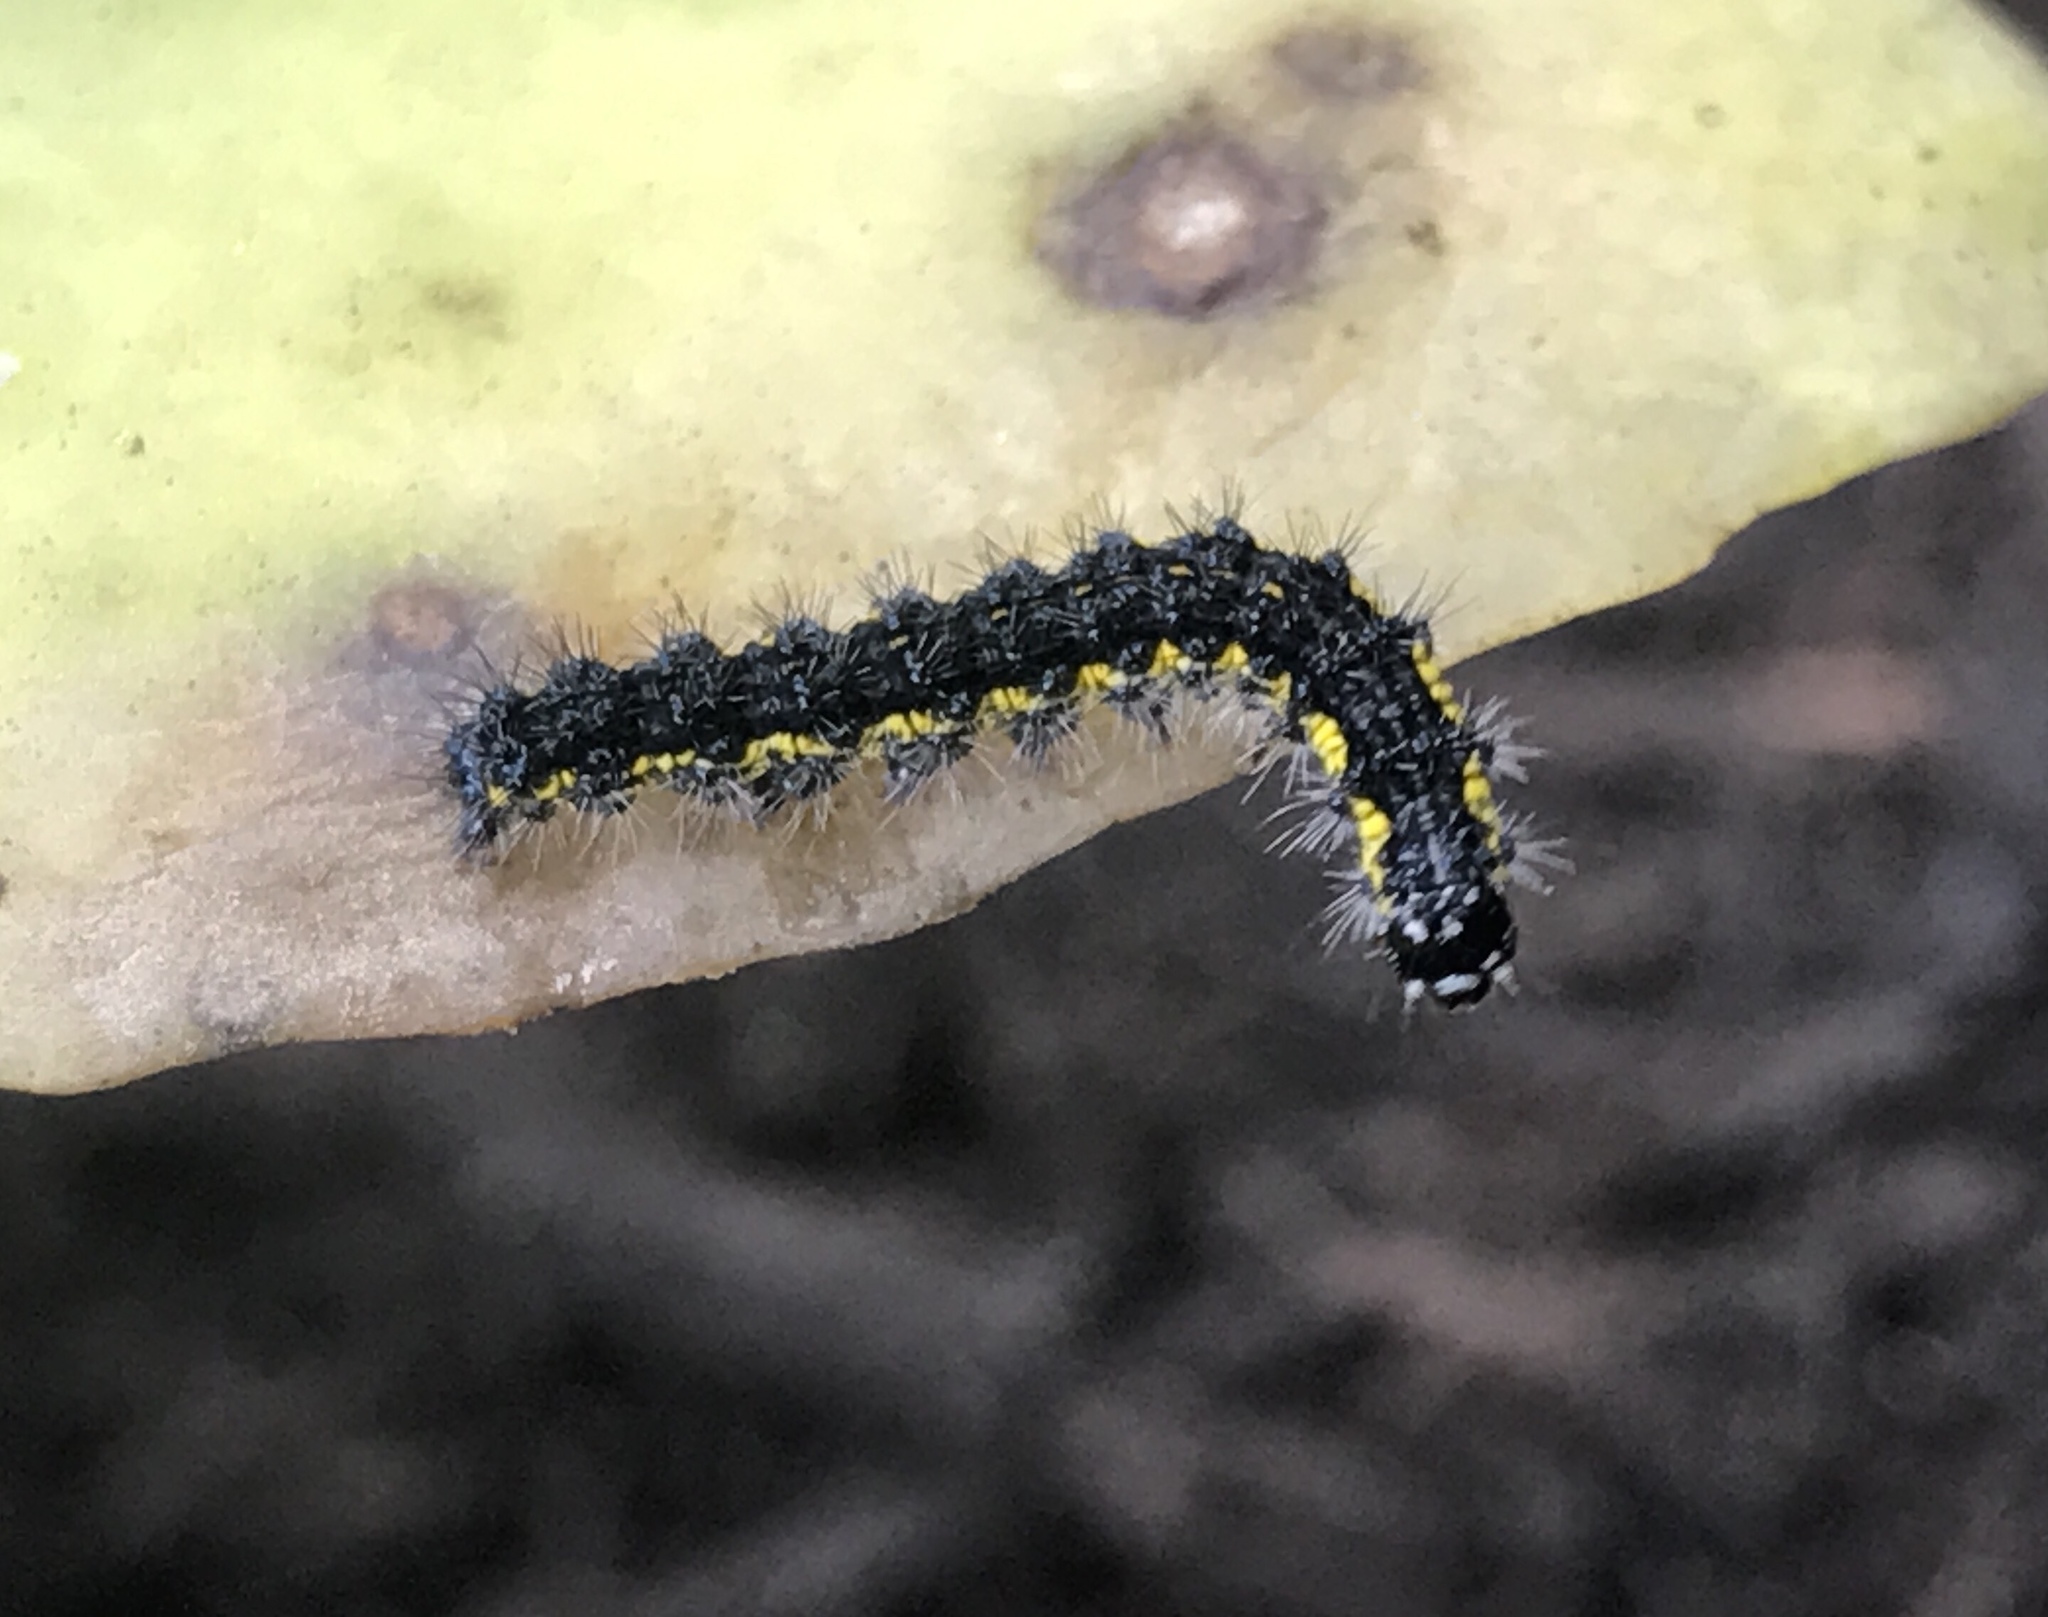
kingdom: Animalia
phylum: Arthropoda
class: Insecta
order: Lepidoptera
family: Erebidae
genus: Haploa
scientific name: Haploa lecontei
